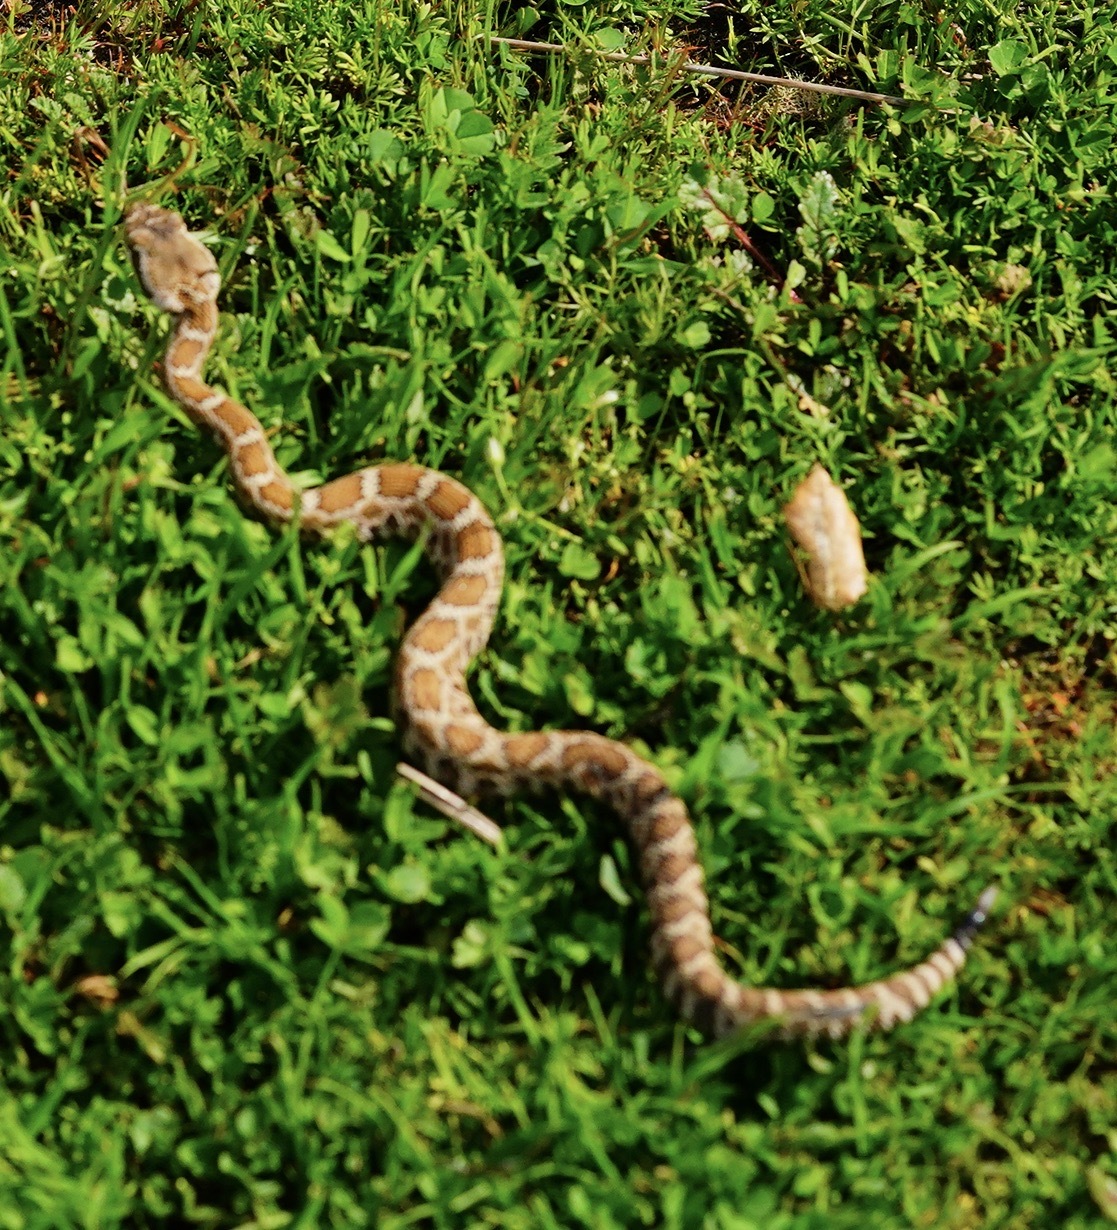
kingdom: Animalia
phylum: Chordata
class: Squamata
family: Viperidae
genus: Crotalus
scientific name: Crotalus oreganus
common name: Abyssus
